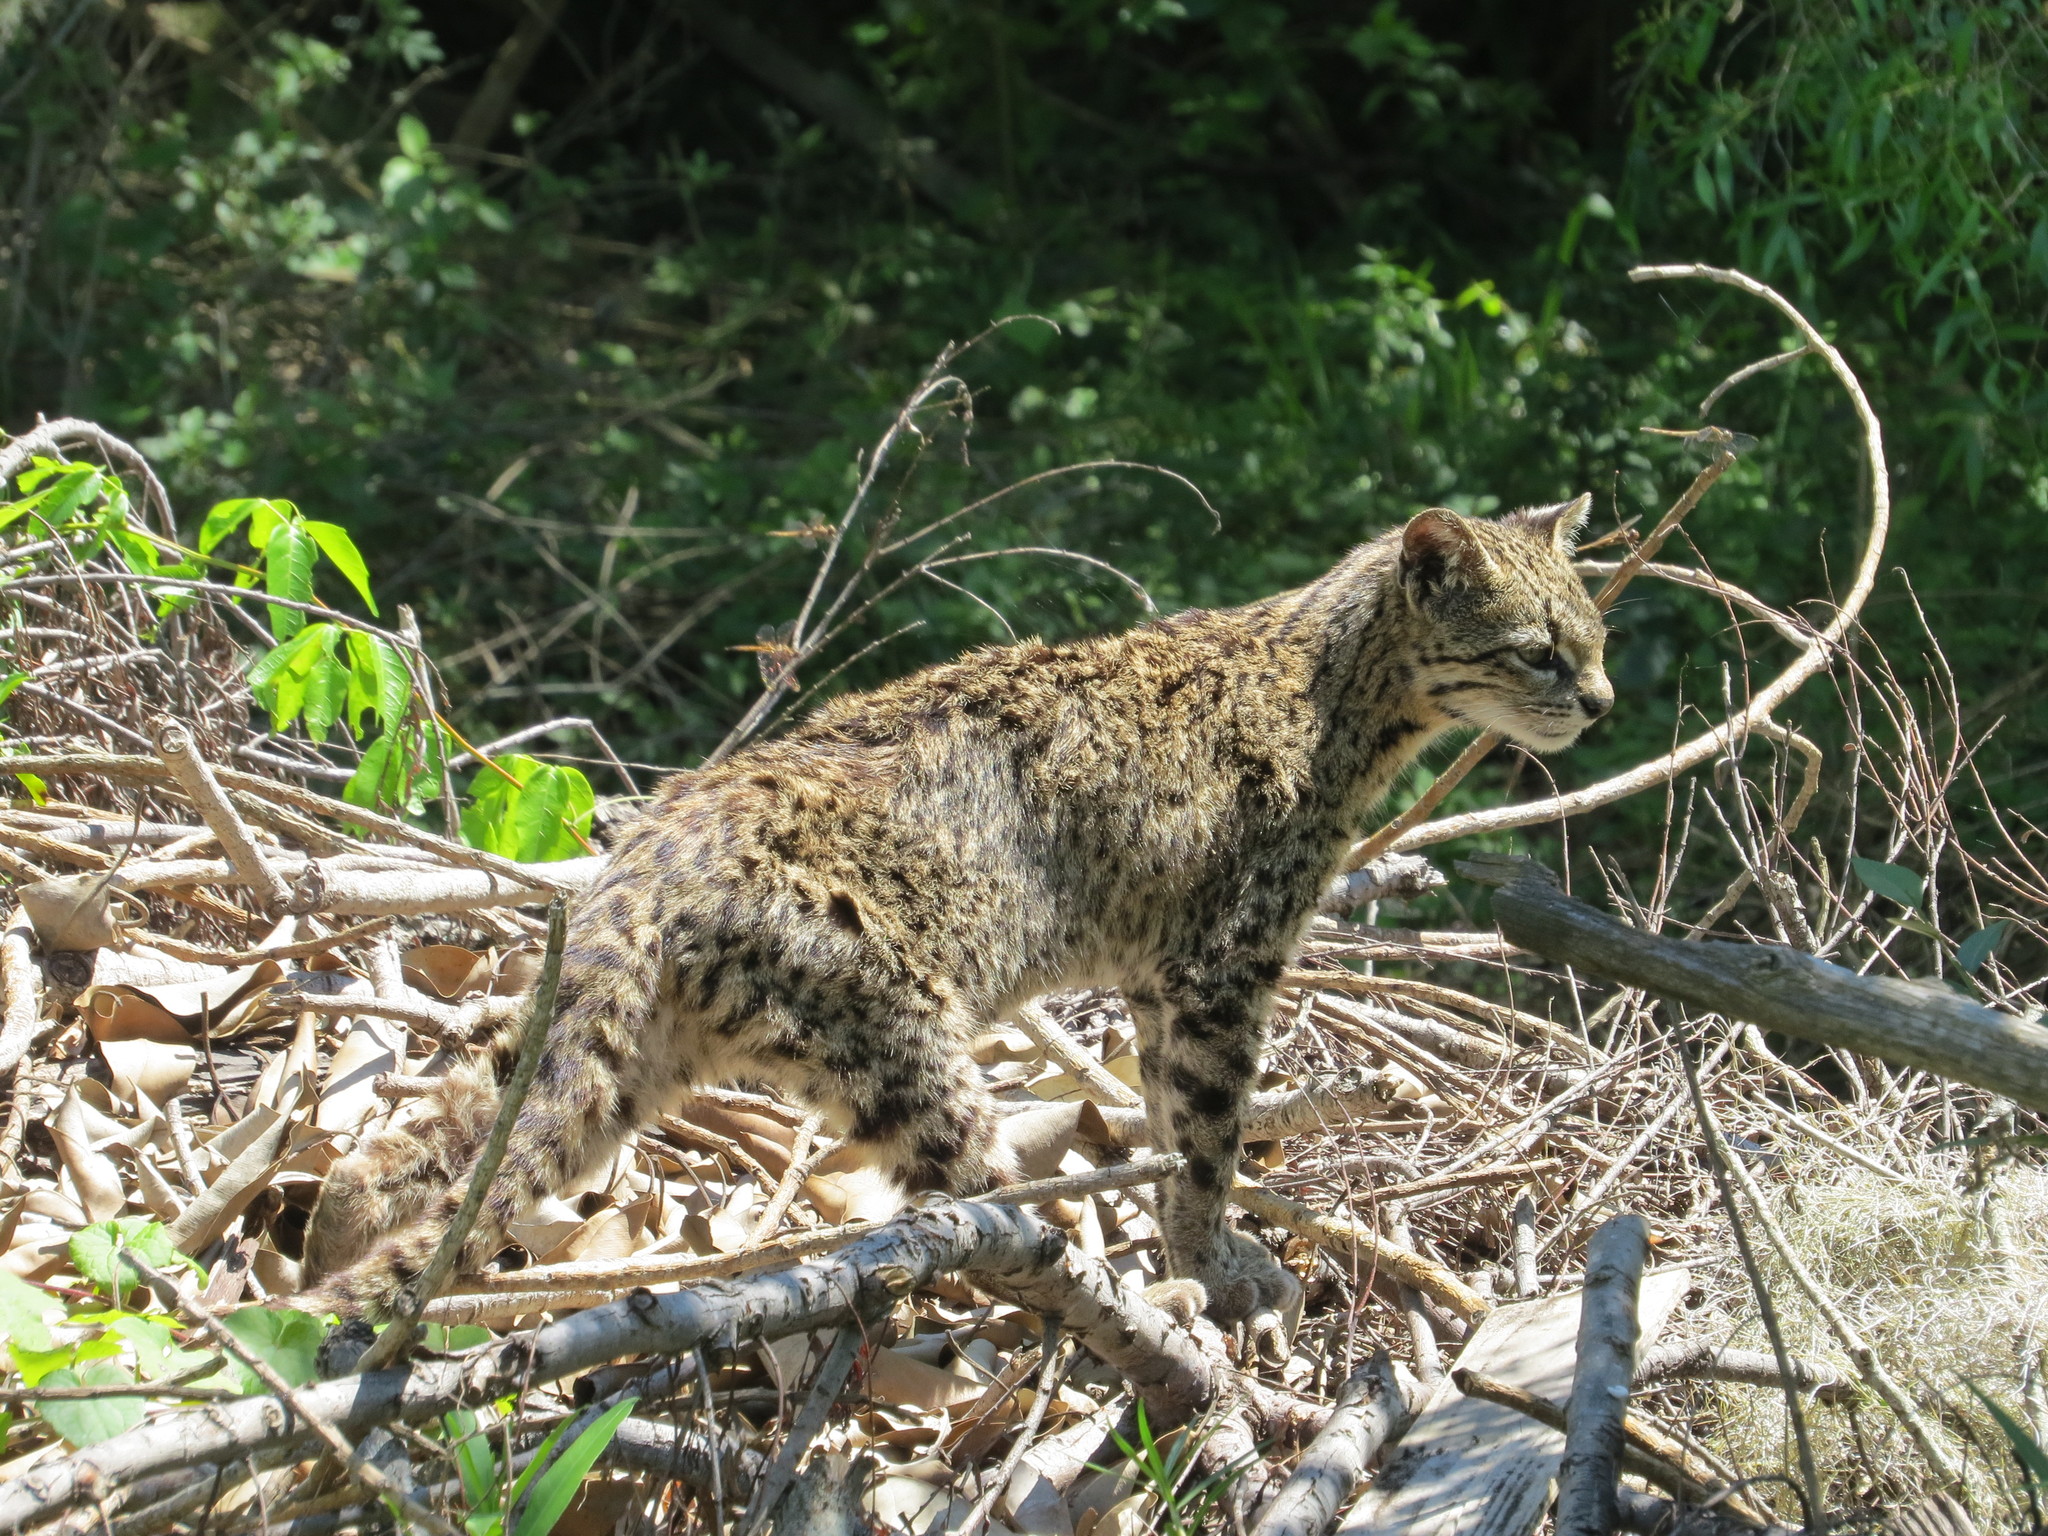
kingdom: Animalia
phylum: Chordata
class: Mammalia
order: Carnivora
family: Felidae
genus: Leopardus
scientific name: Leopardus geoffroyi
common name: Geoffroy's cat
